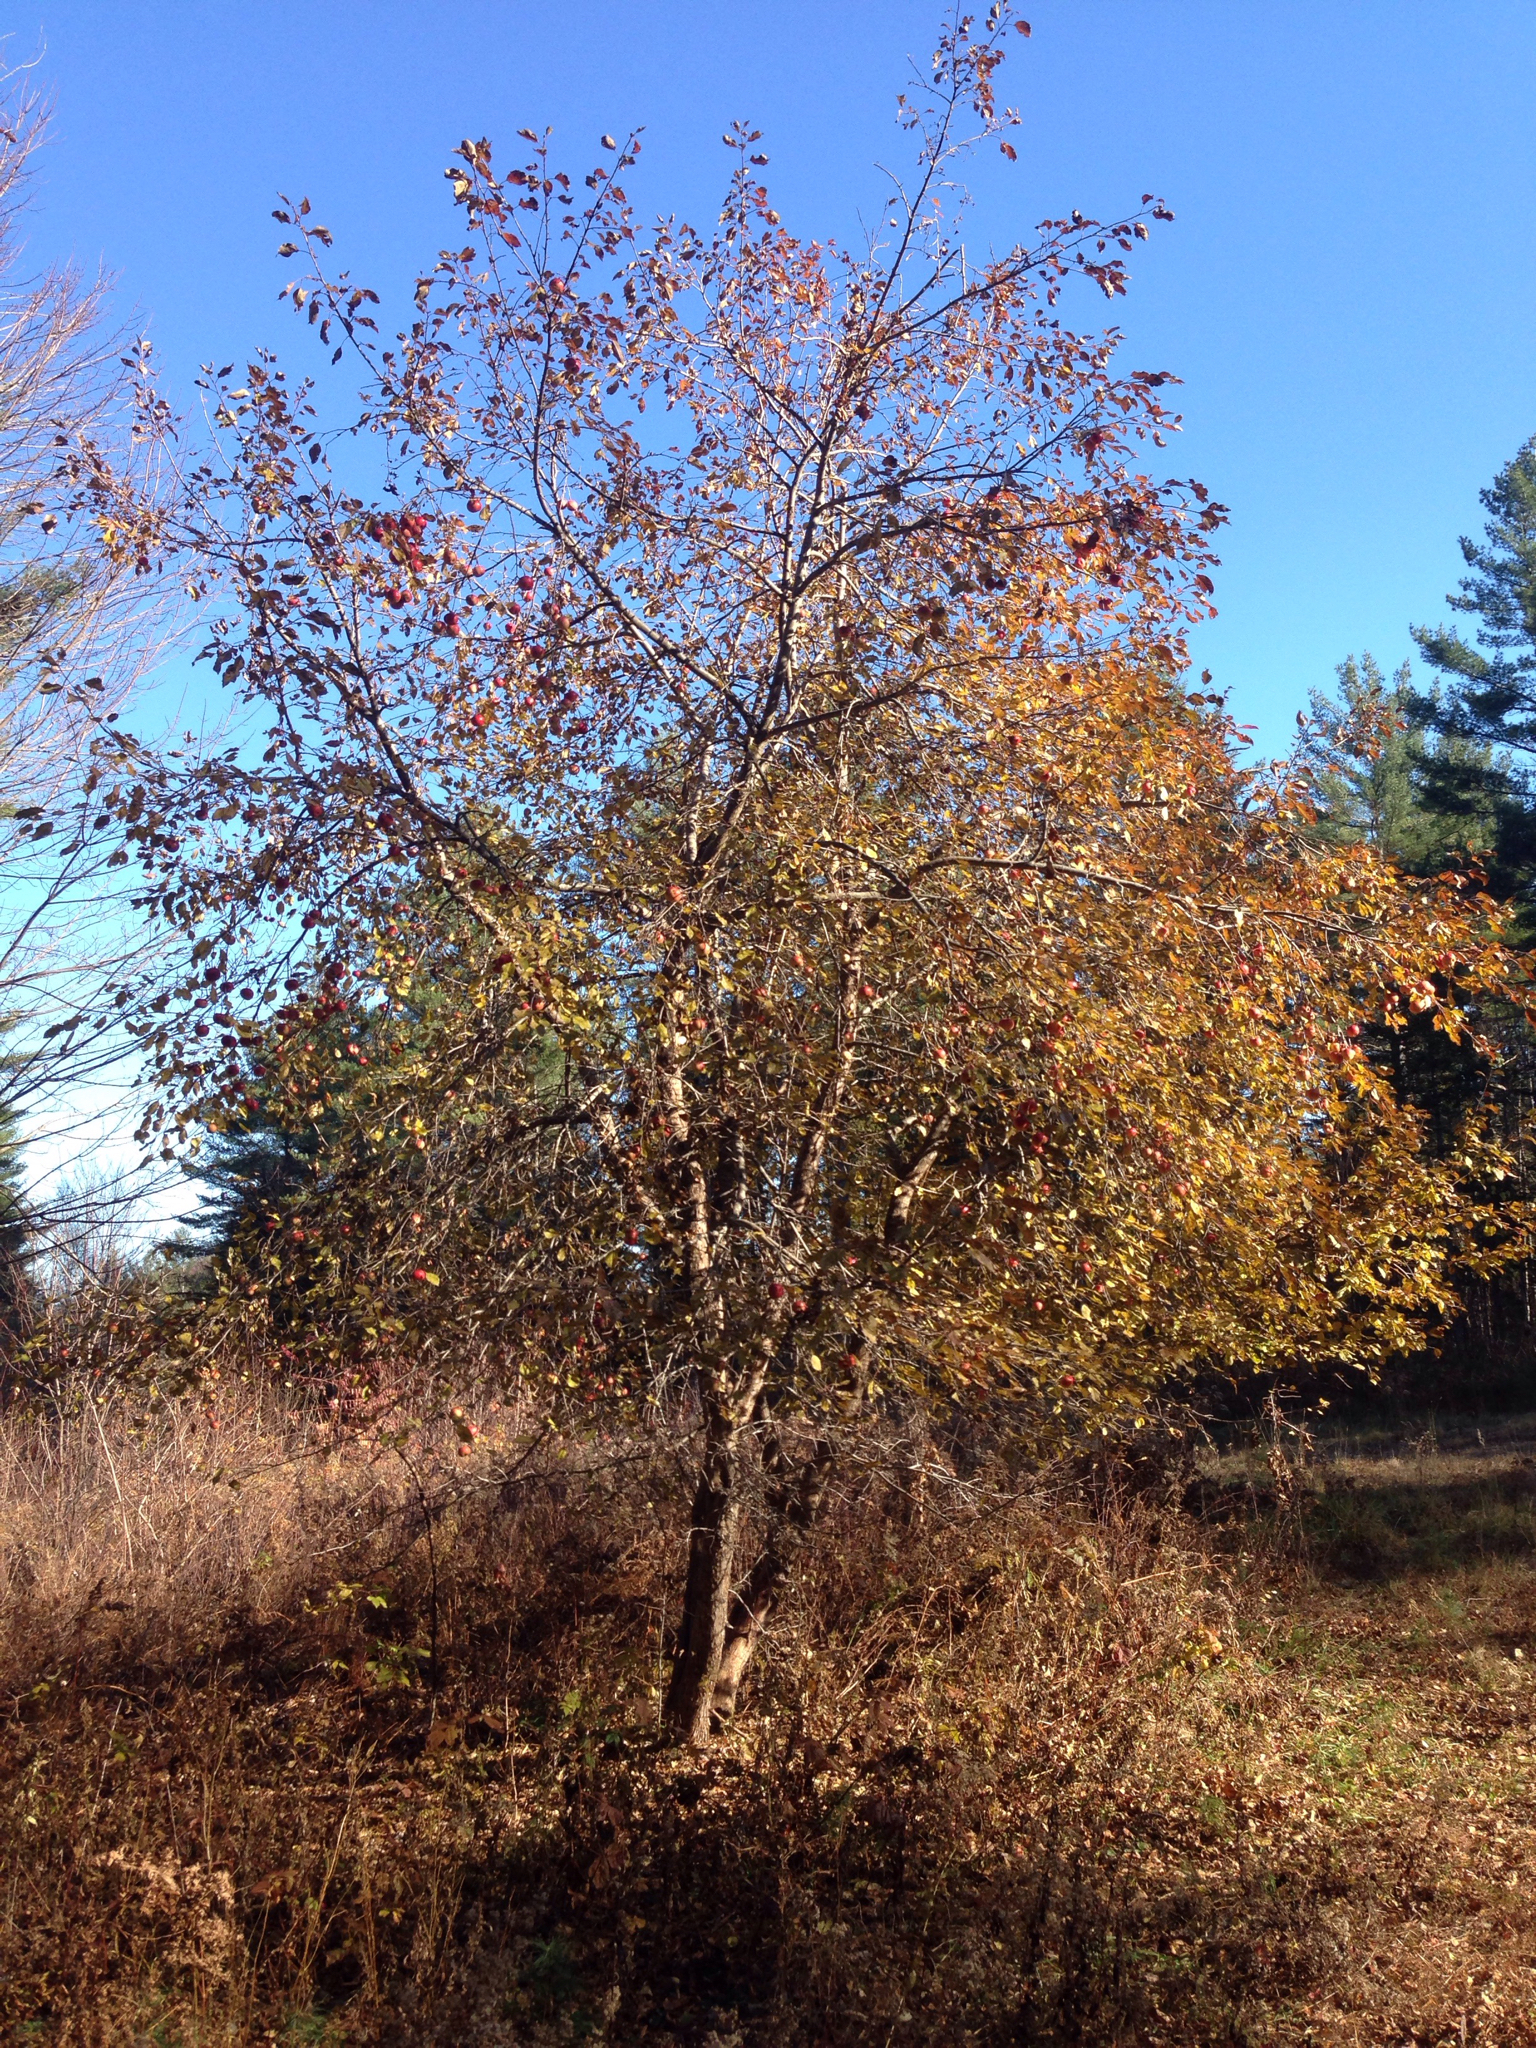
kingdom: Plantae
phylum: Tracheophyta
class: Magnoliopsida
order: Rosales
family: Rosaceae
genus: Malus
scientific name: Malus domestica
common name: Apple
